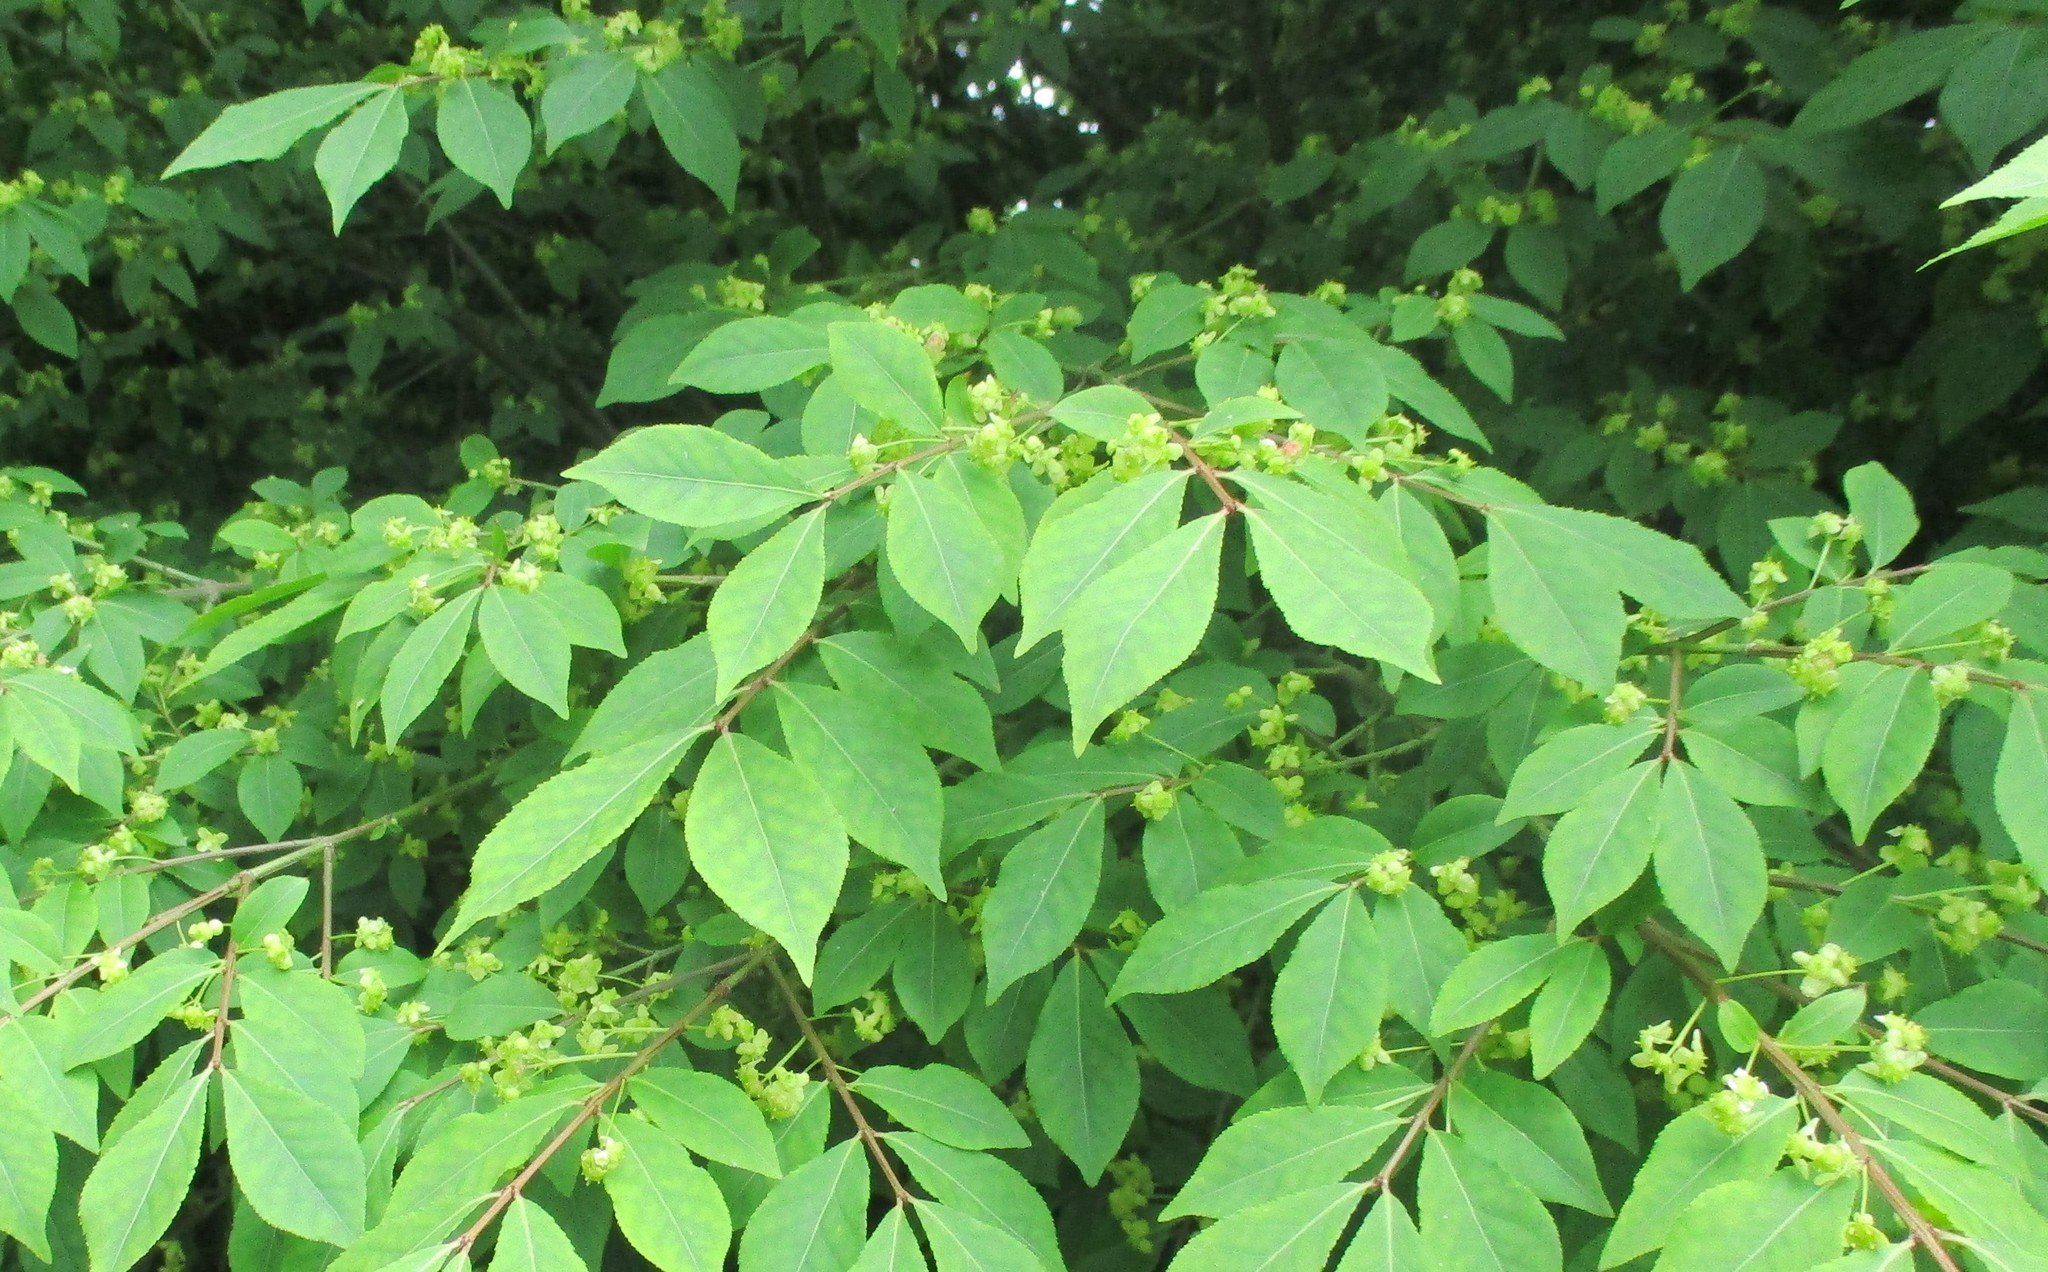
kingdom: Plantae
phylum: Tracheophyta
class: Magnoliopsida
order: Celastrales
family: Celastraceae
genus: Euonymus
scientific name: Euonymus alatus
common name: Winged euonymus
